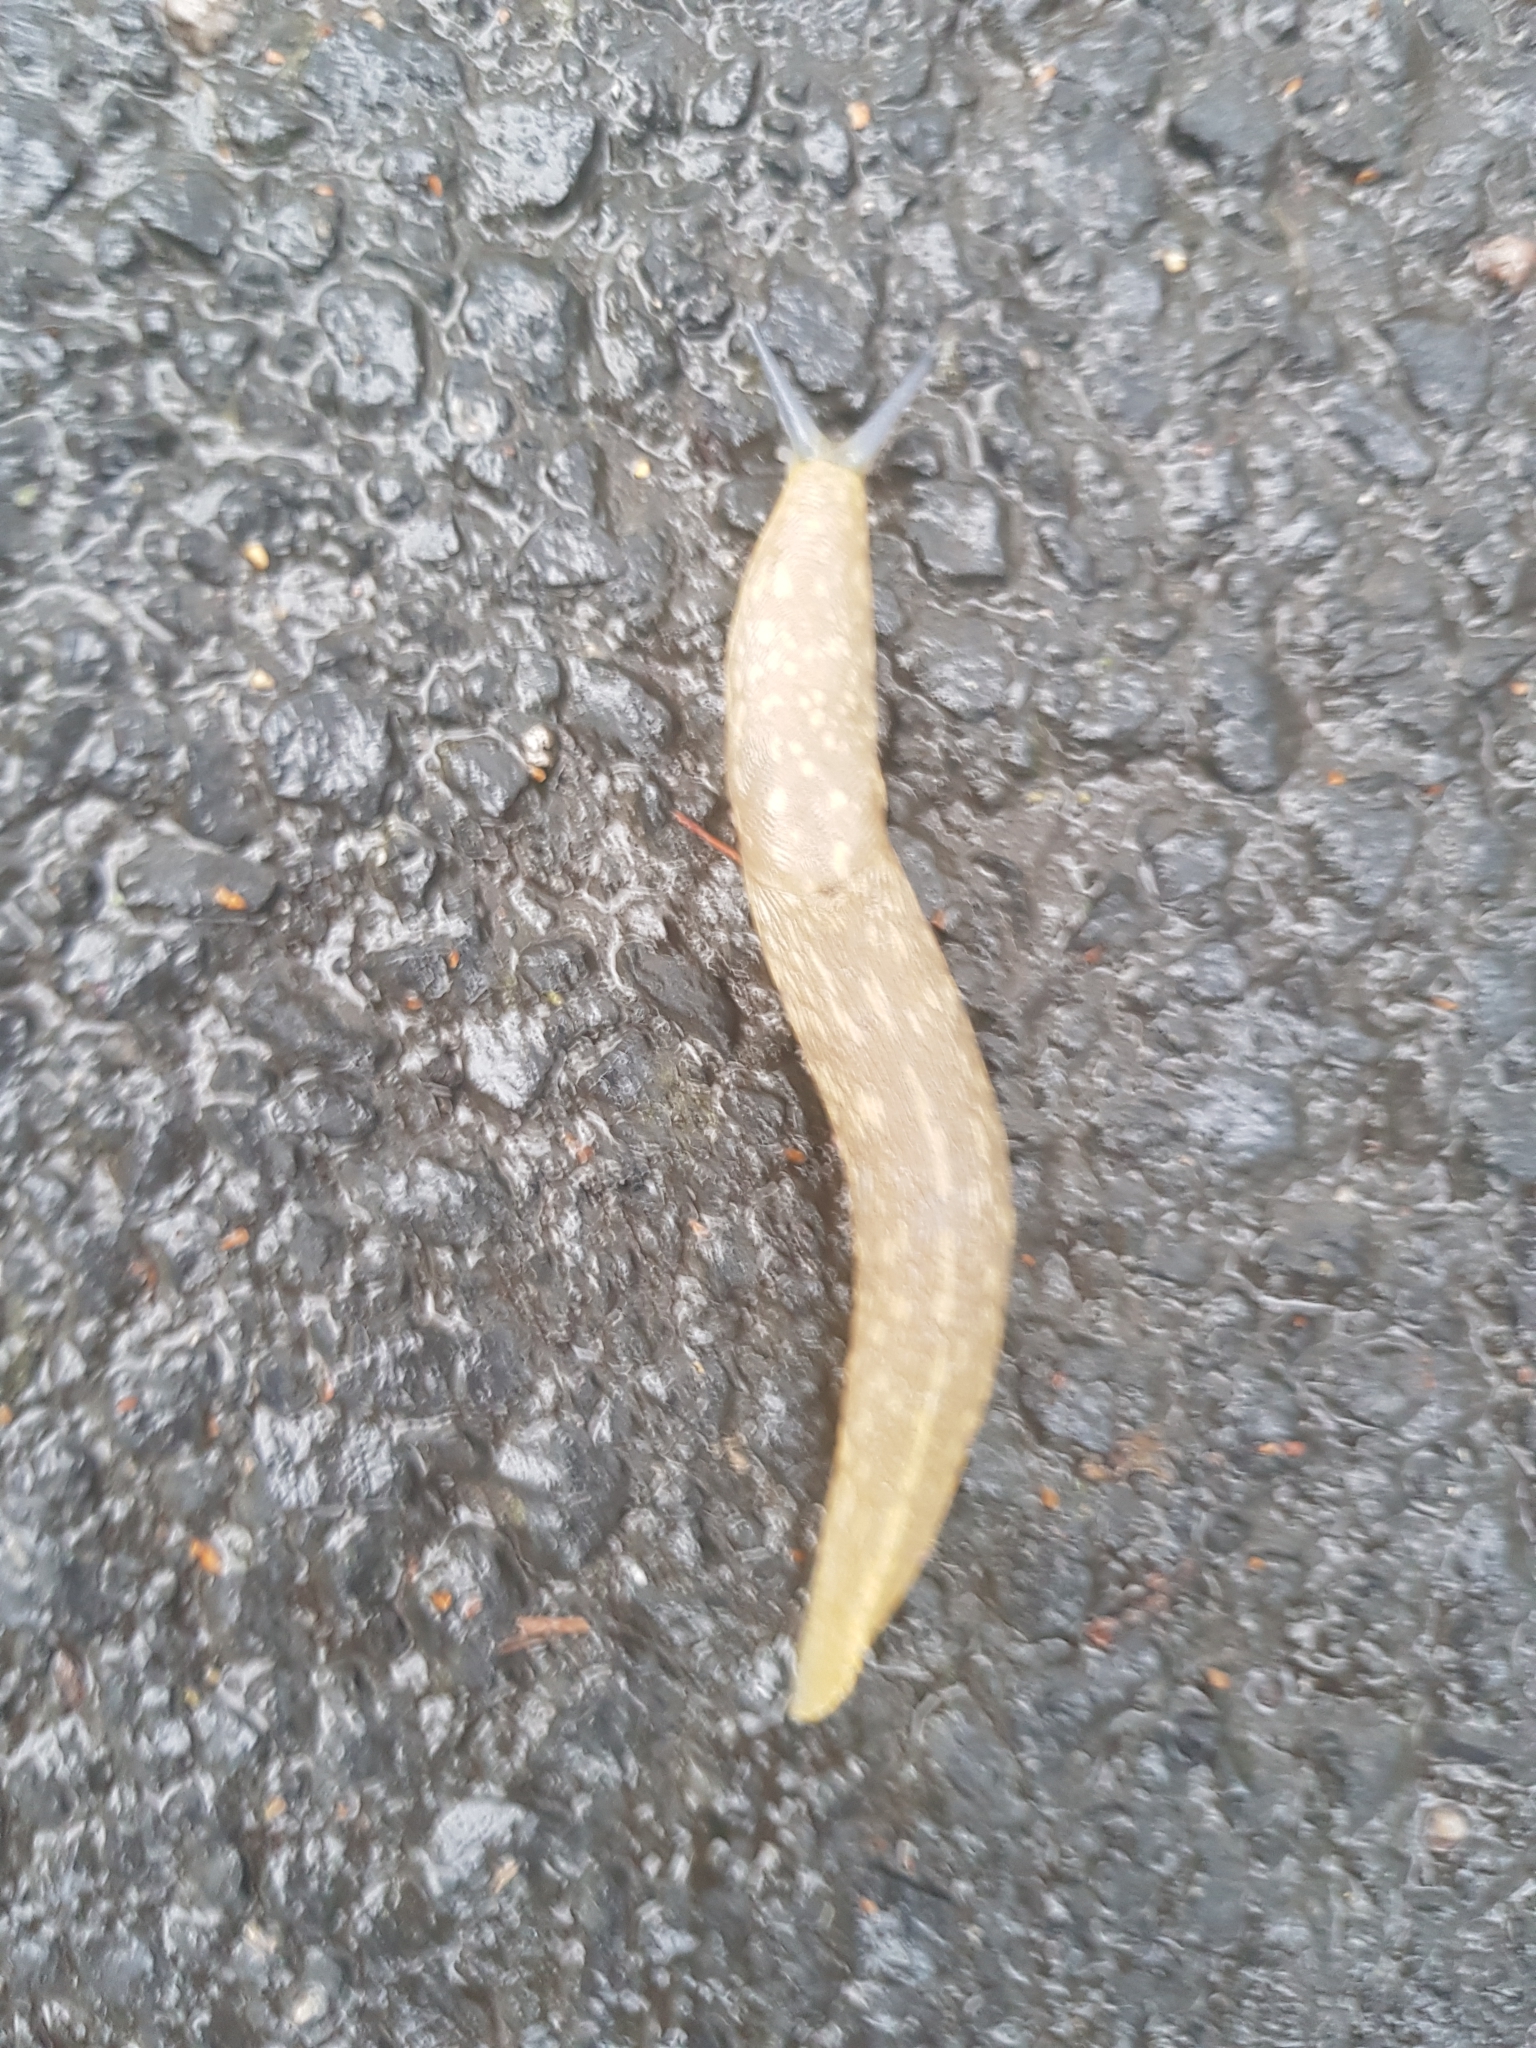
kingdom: Animalia
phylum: Mollusca
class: Gastropoda
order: Stylommatophora
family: Limacidae
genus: Limacus
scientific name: Limacus flavus
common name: Yellow gardenslug
